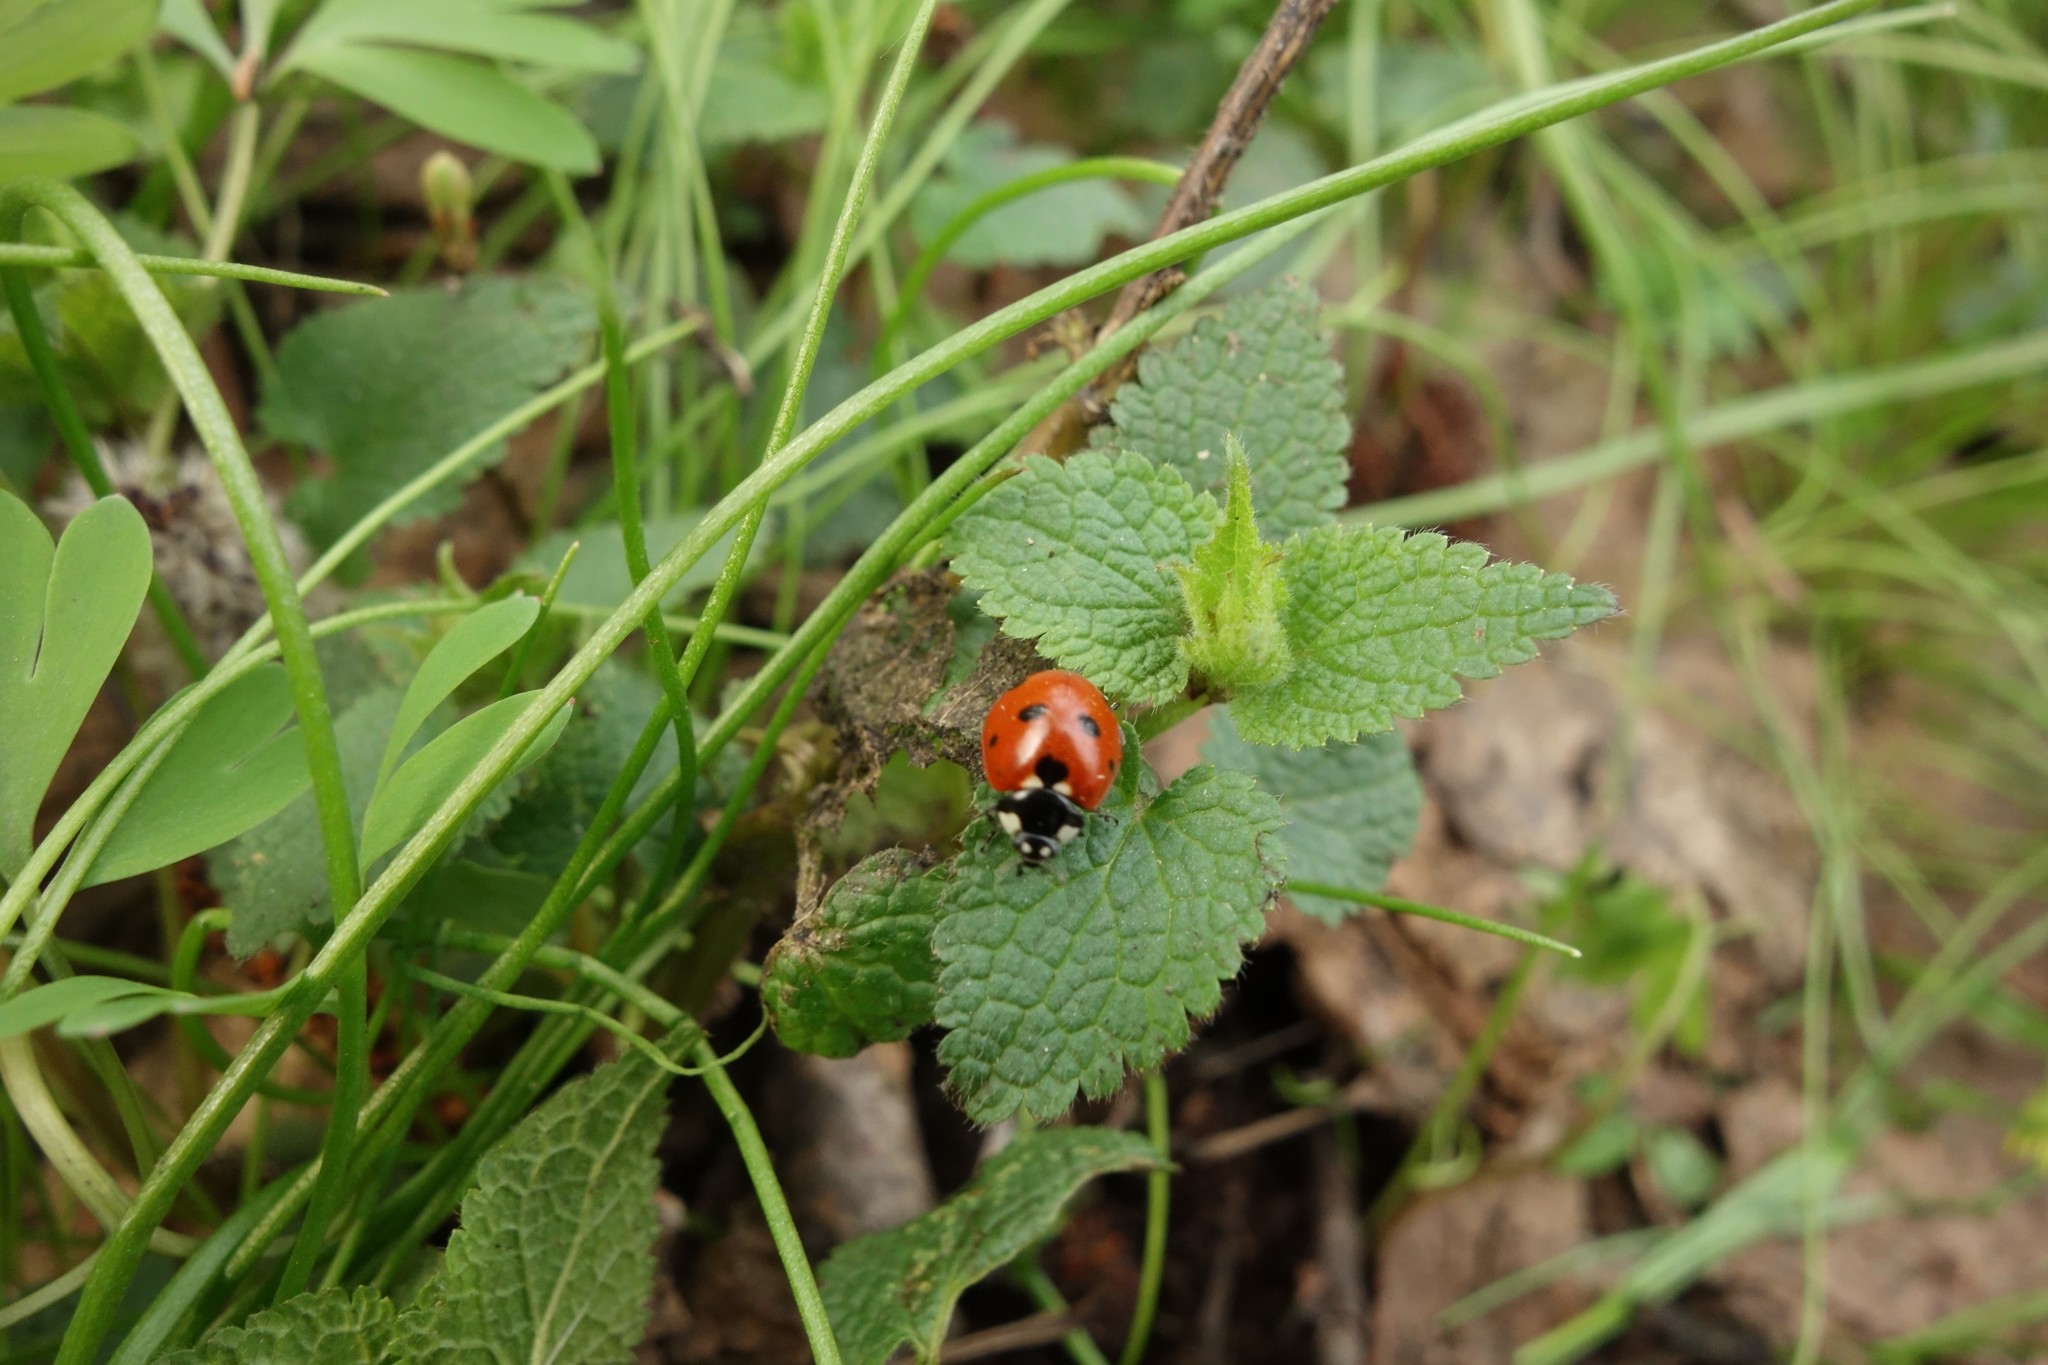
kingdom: Animalia
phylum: Arthropoda
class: Insecta
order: Coleoptera
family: Coccinellidae
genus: Coccinella
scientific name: Coccinella septempunctata
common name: Sevenspotted lady beetle
